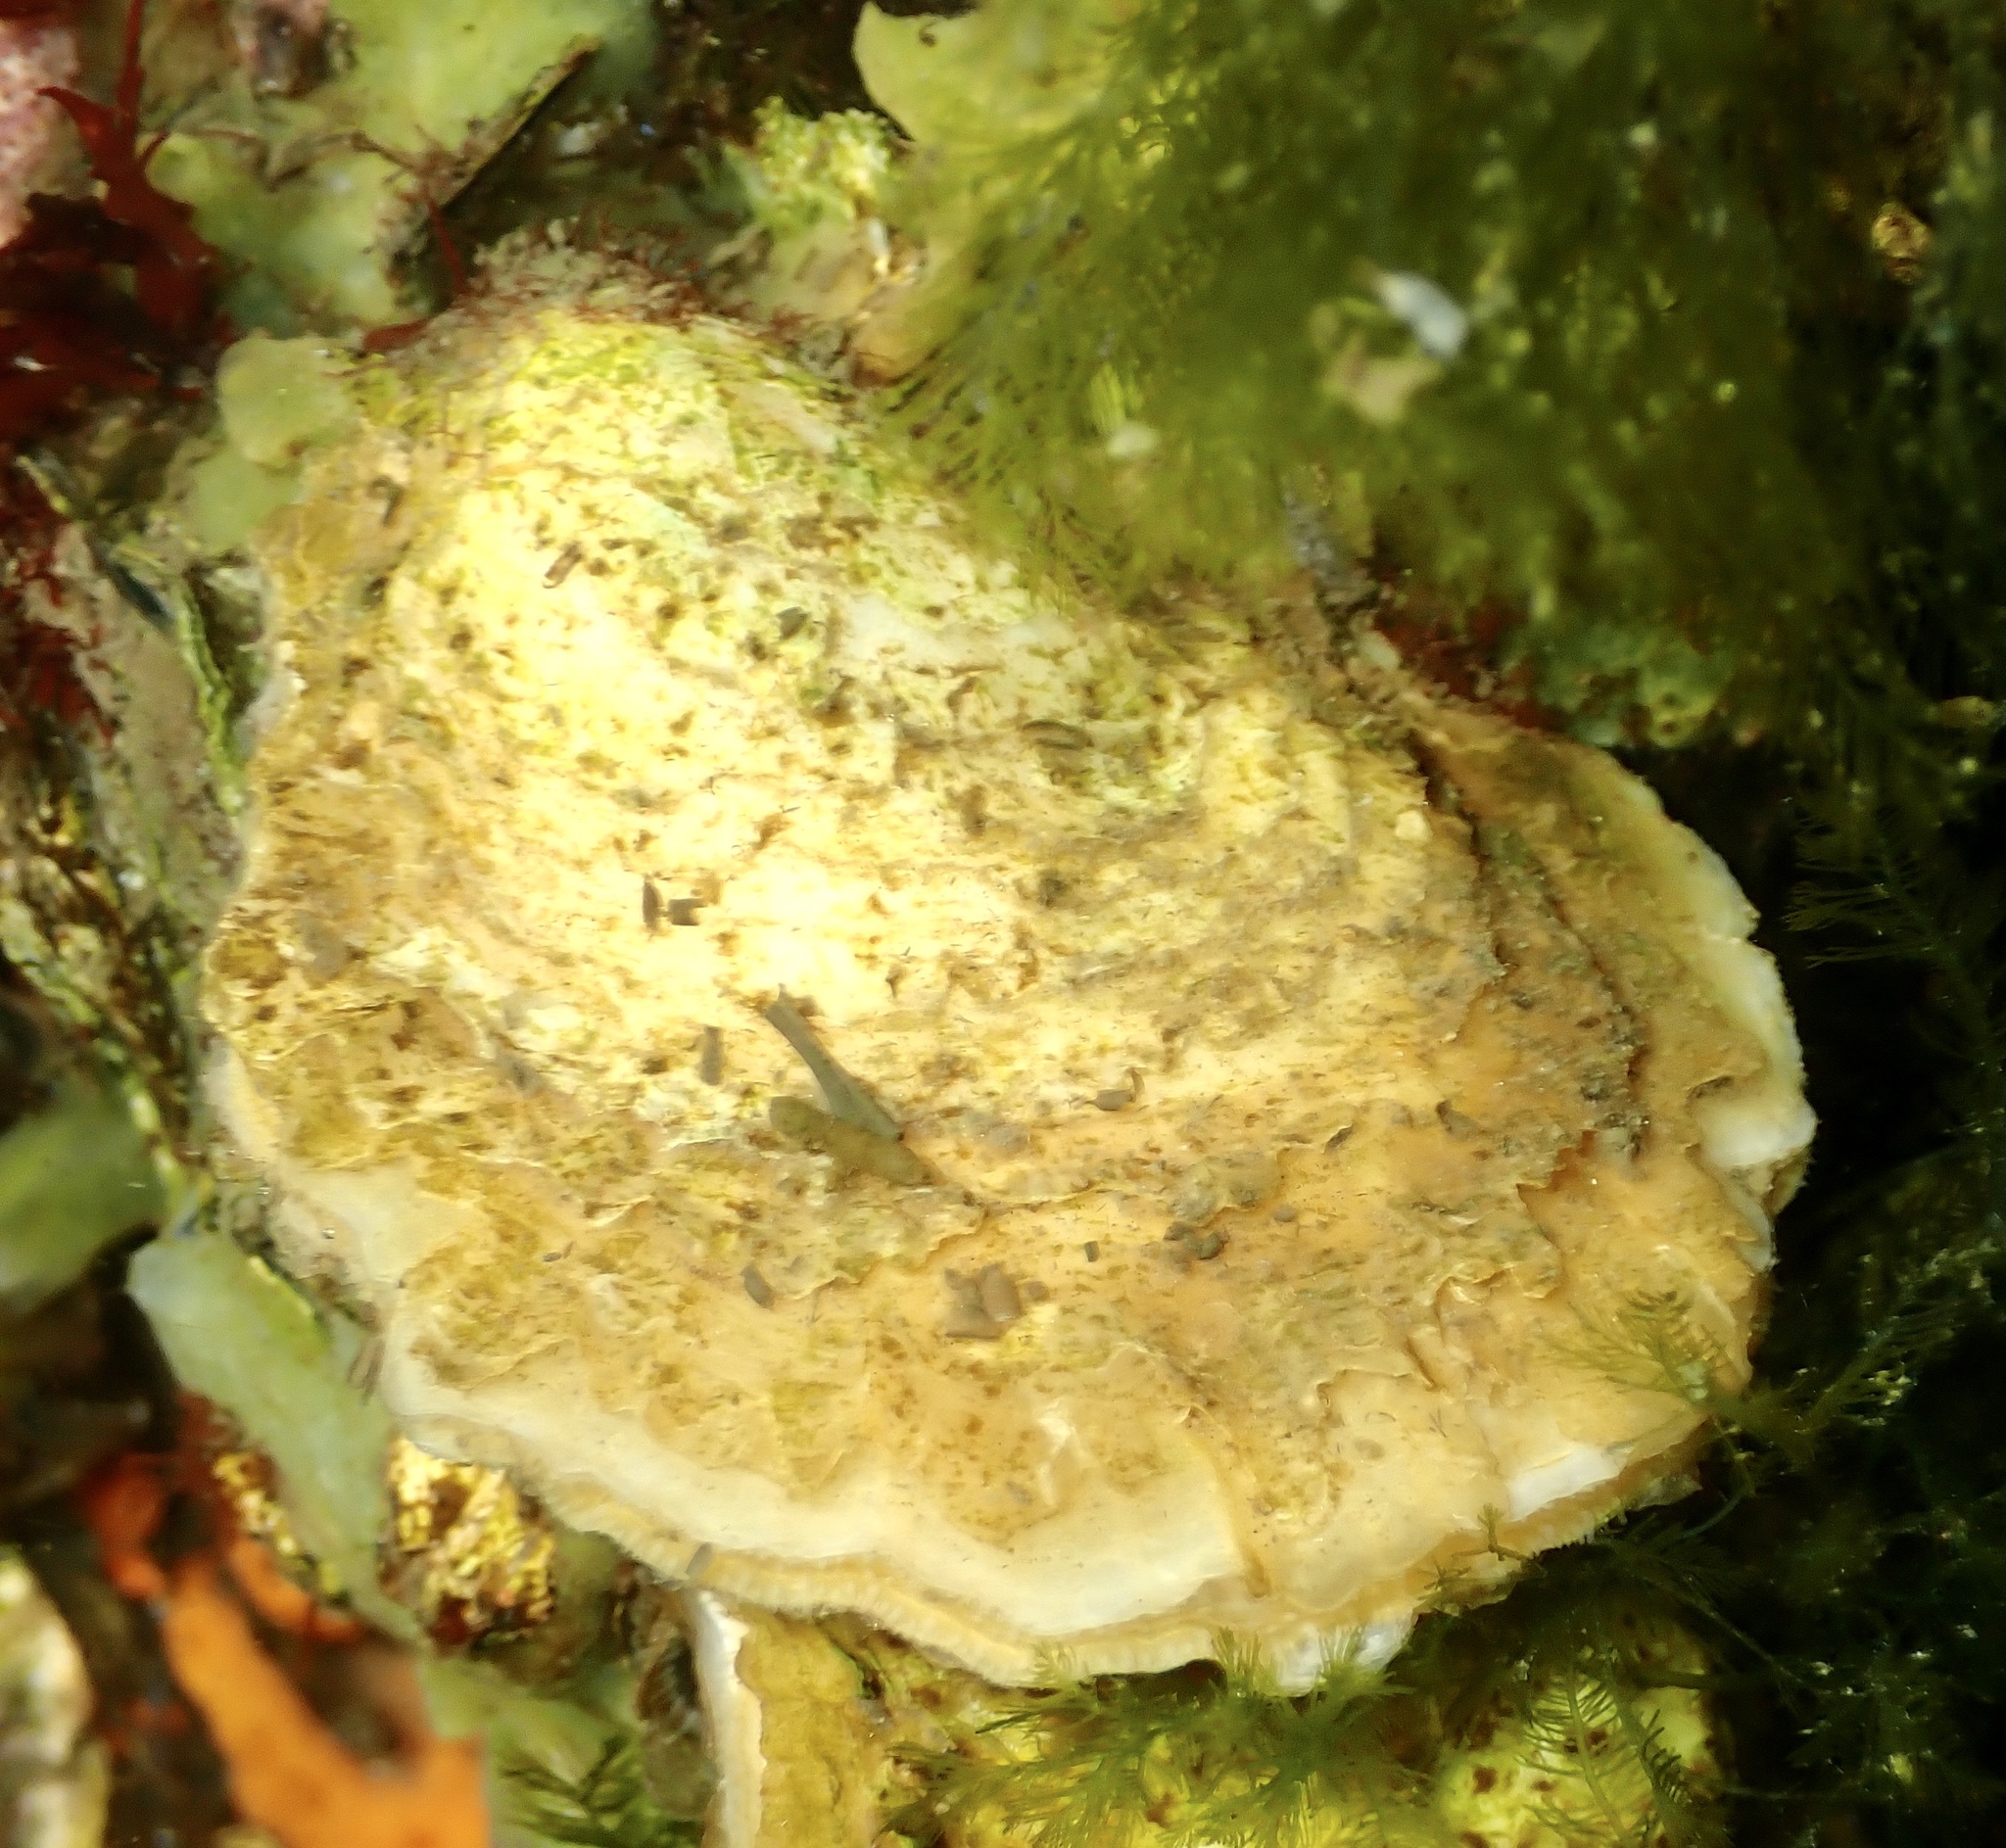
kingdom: Animalia
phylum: Mollusca
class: Bivalvia
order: Ostreida
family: Ostreidae
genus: Ostrea
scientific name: Ostrea edulis
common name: Flat oyster
